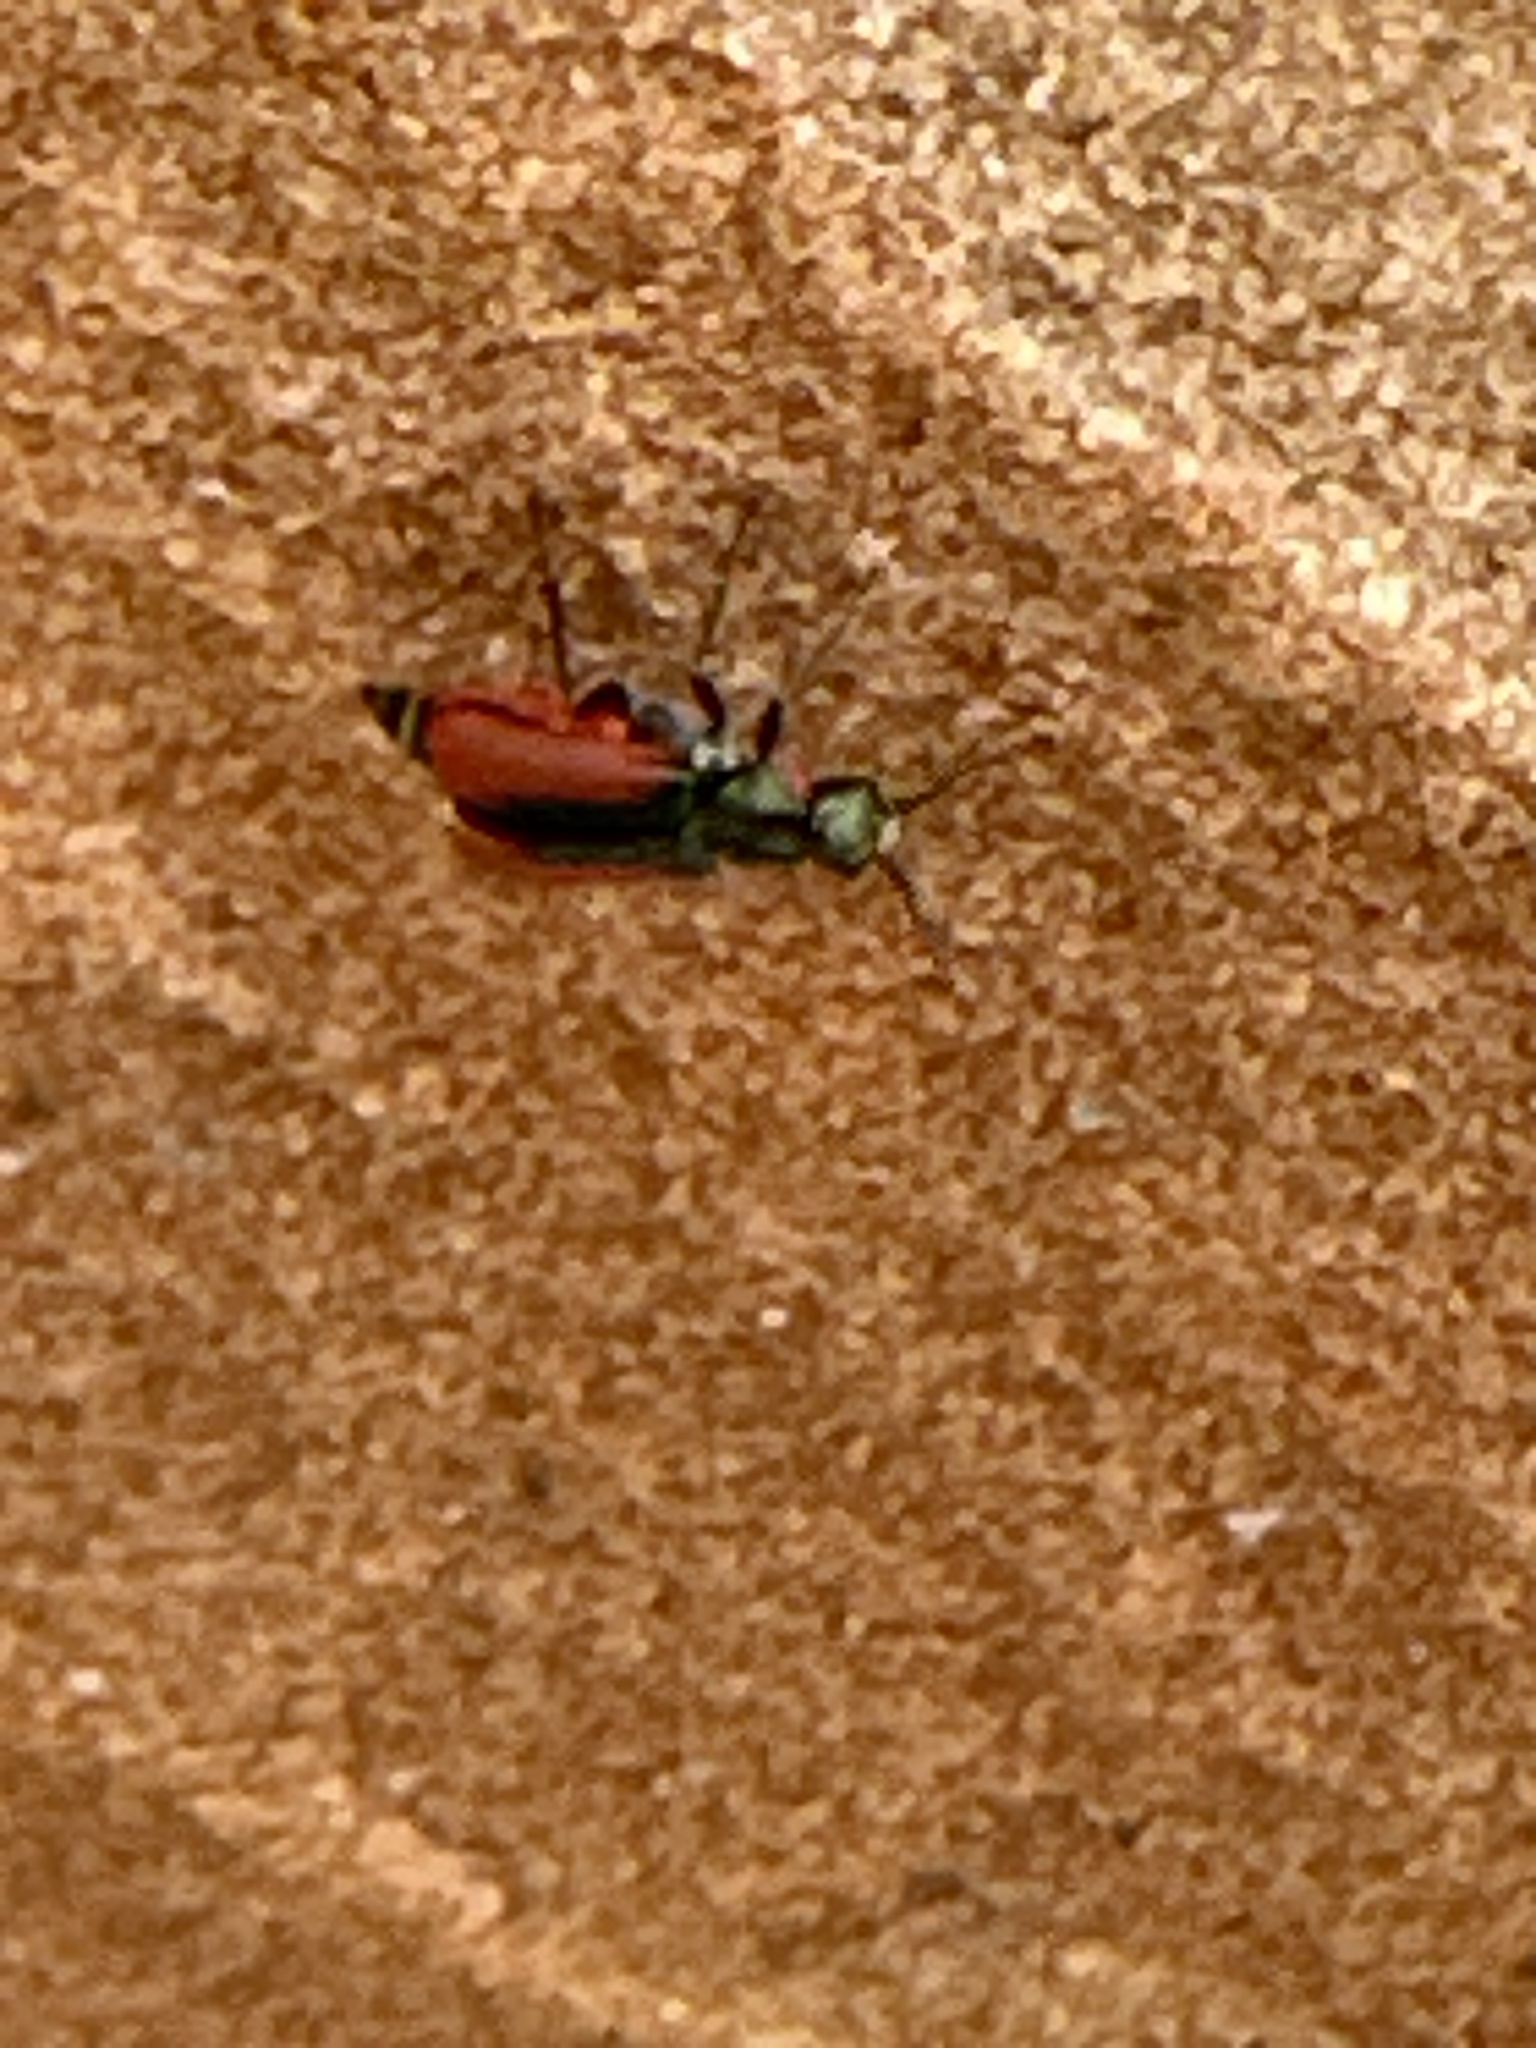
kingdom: Animalia
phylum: Arthropoda
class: Insecta
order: Coleoptera
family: Melyridae
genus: Malachius
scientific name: Malachius aeneus
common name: Scarlet malachite beetle
